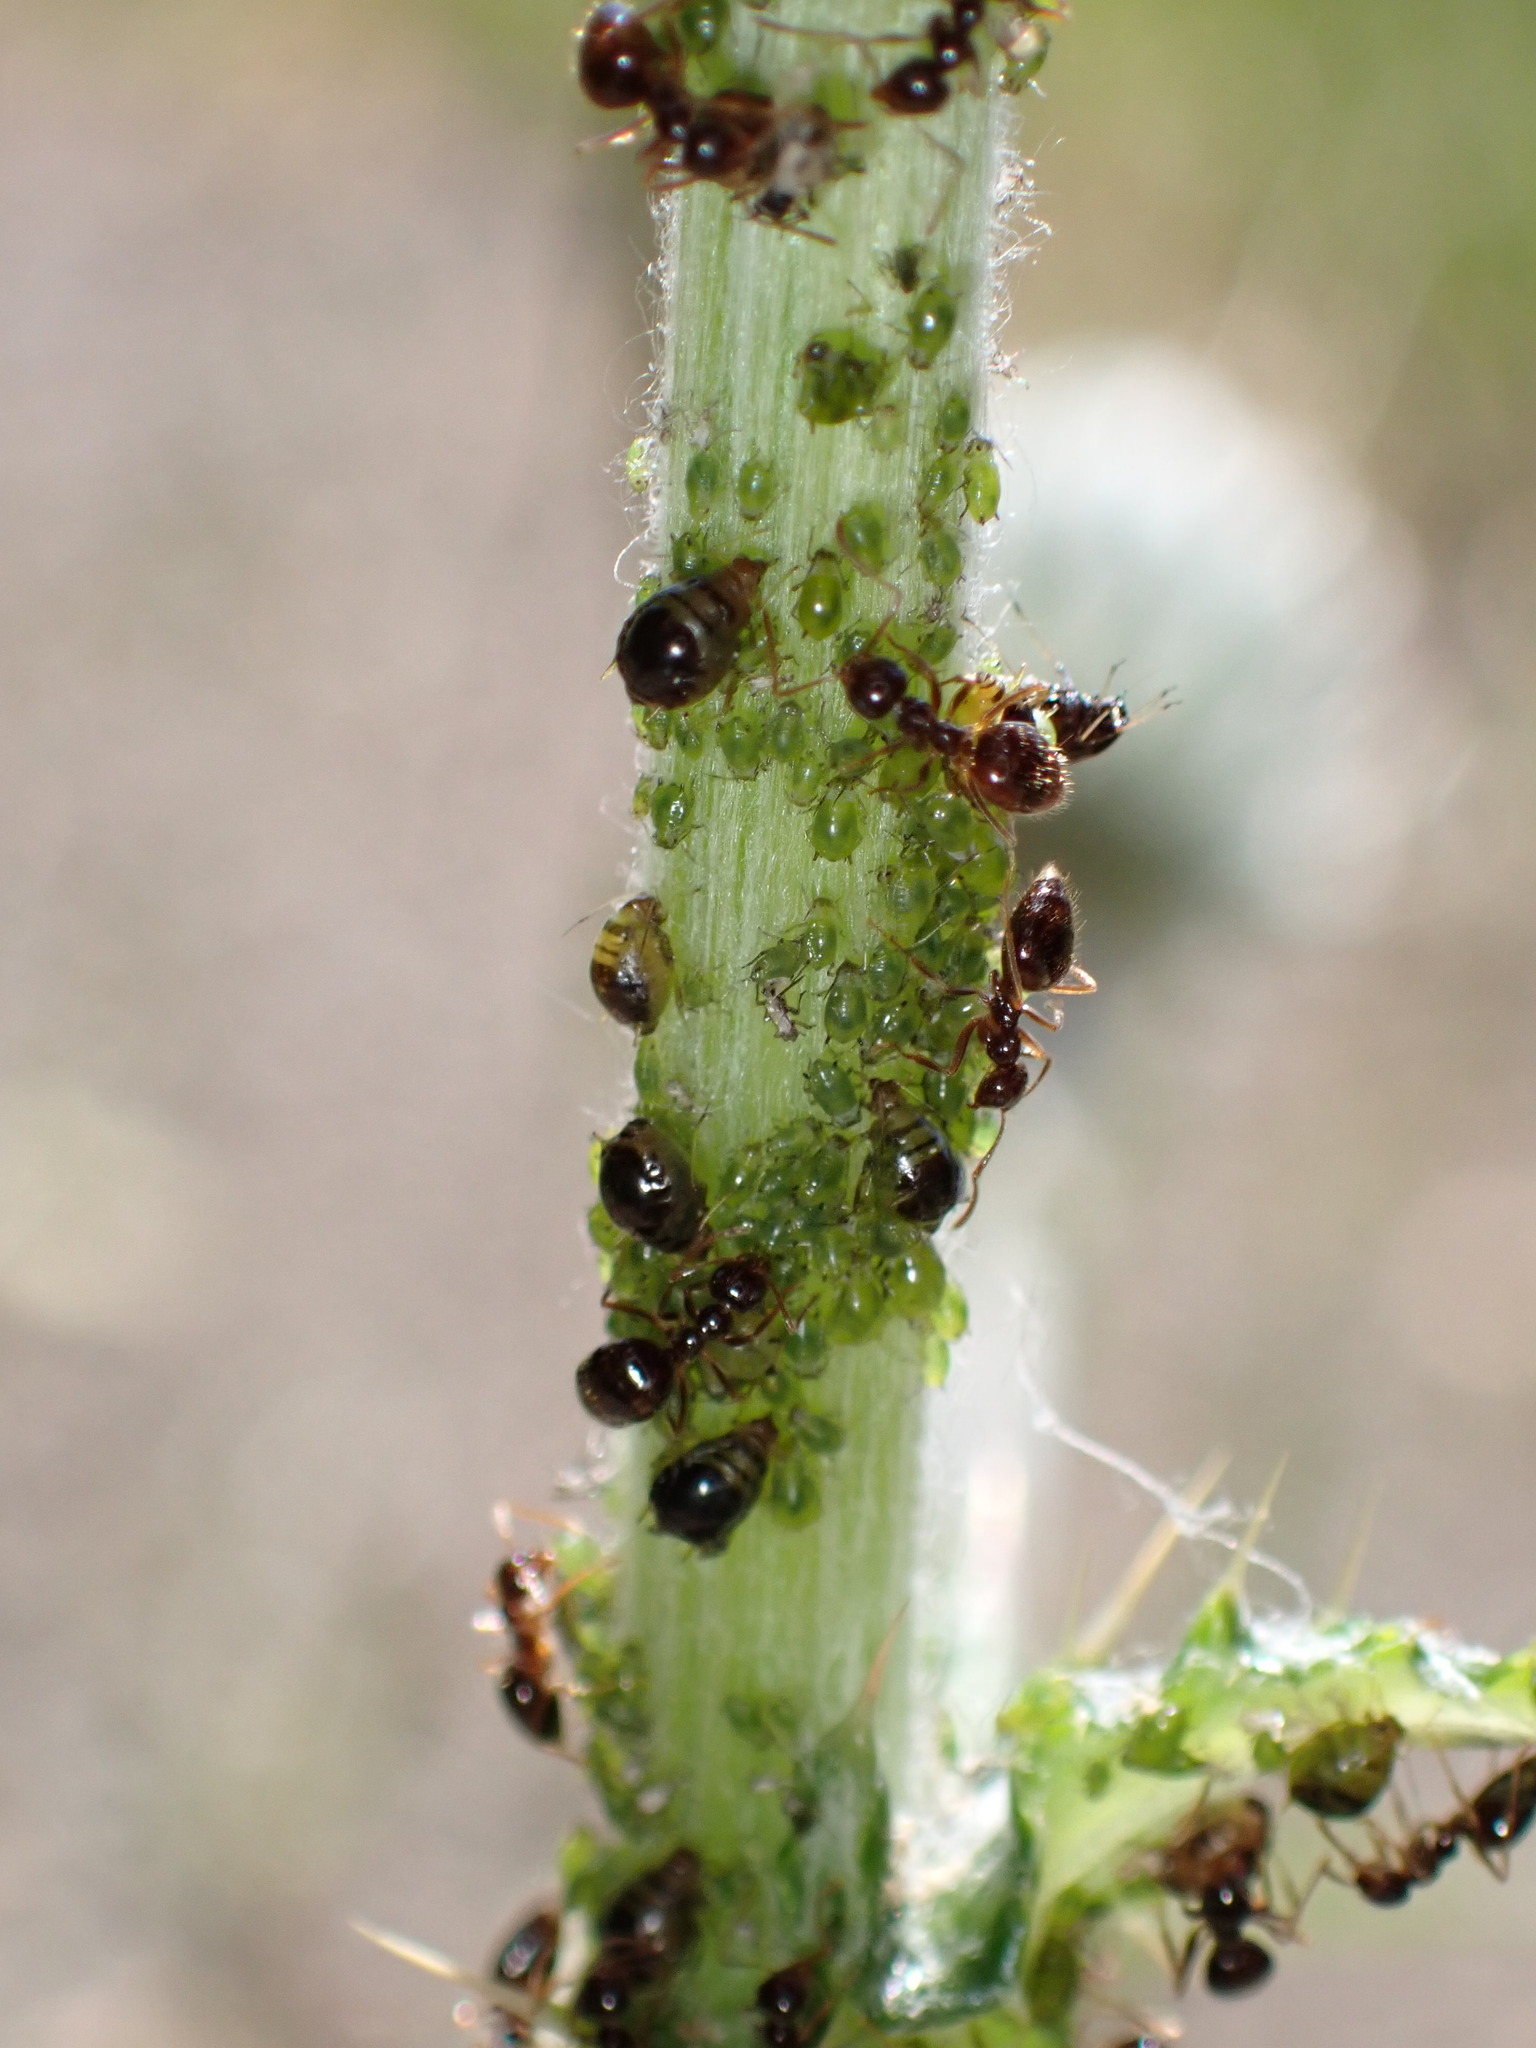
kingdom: Animalia
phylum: Arthropoda
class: Insecta
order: Hymenoptera
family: Formicidae
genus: Prenolepis
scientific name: Prenolepis imparis
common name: Small honey ant
